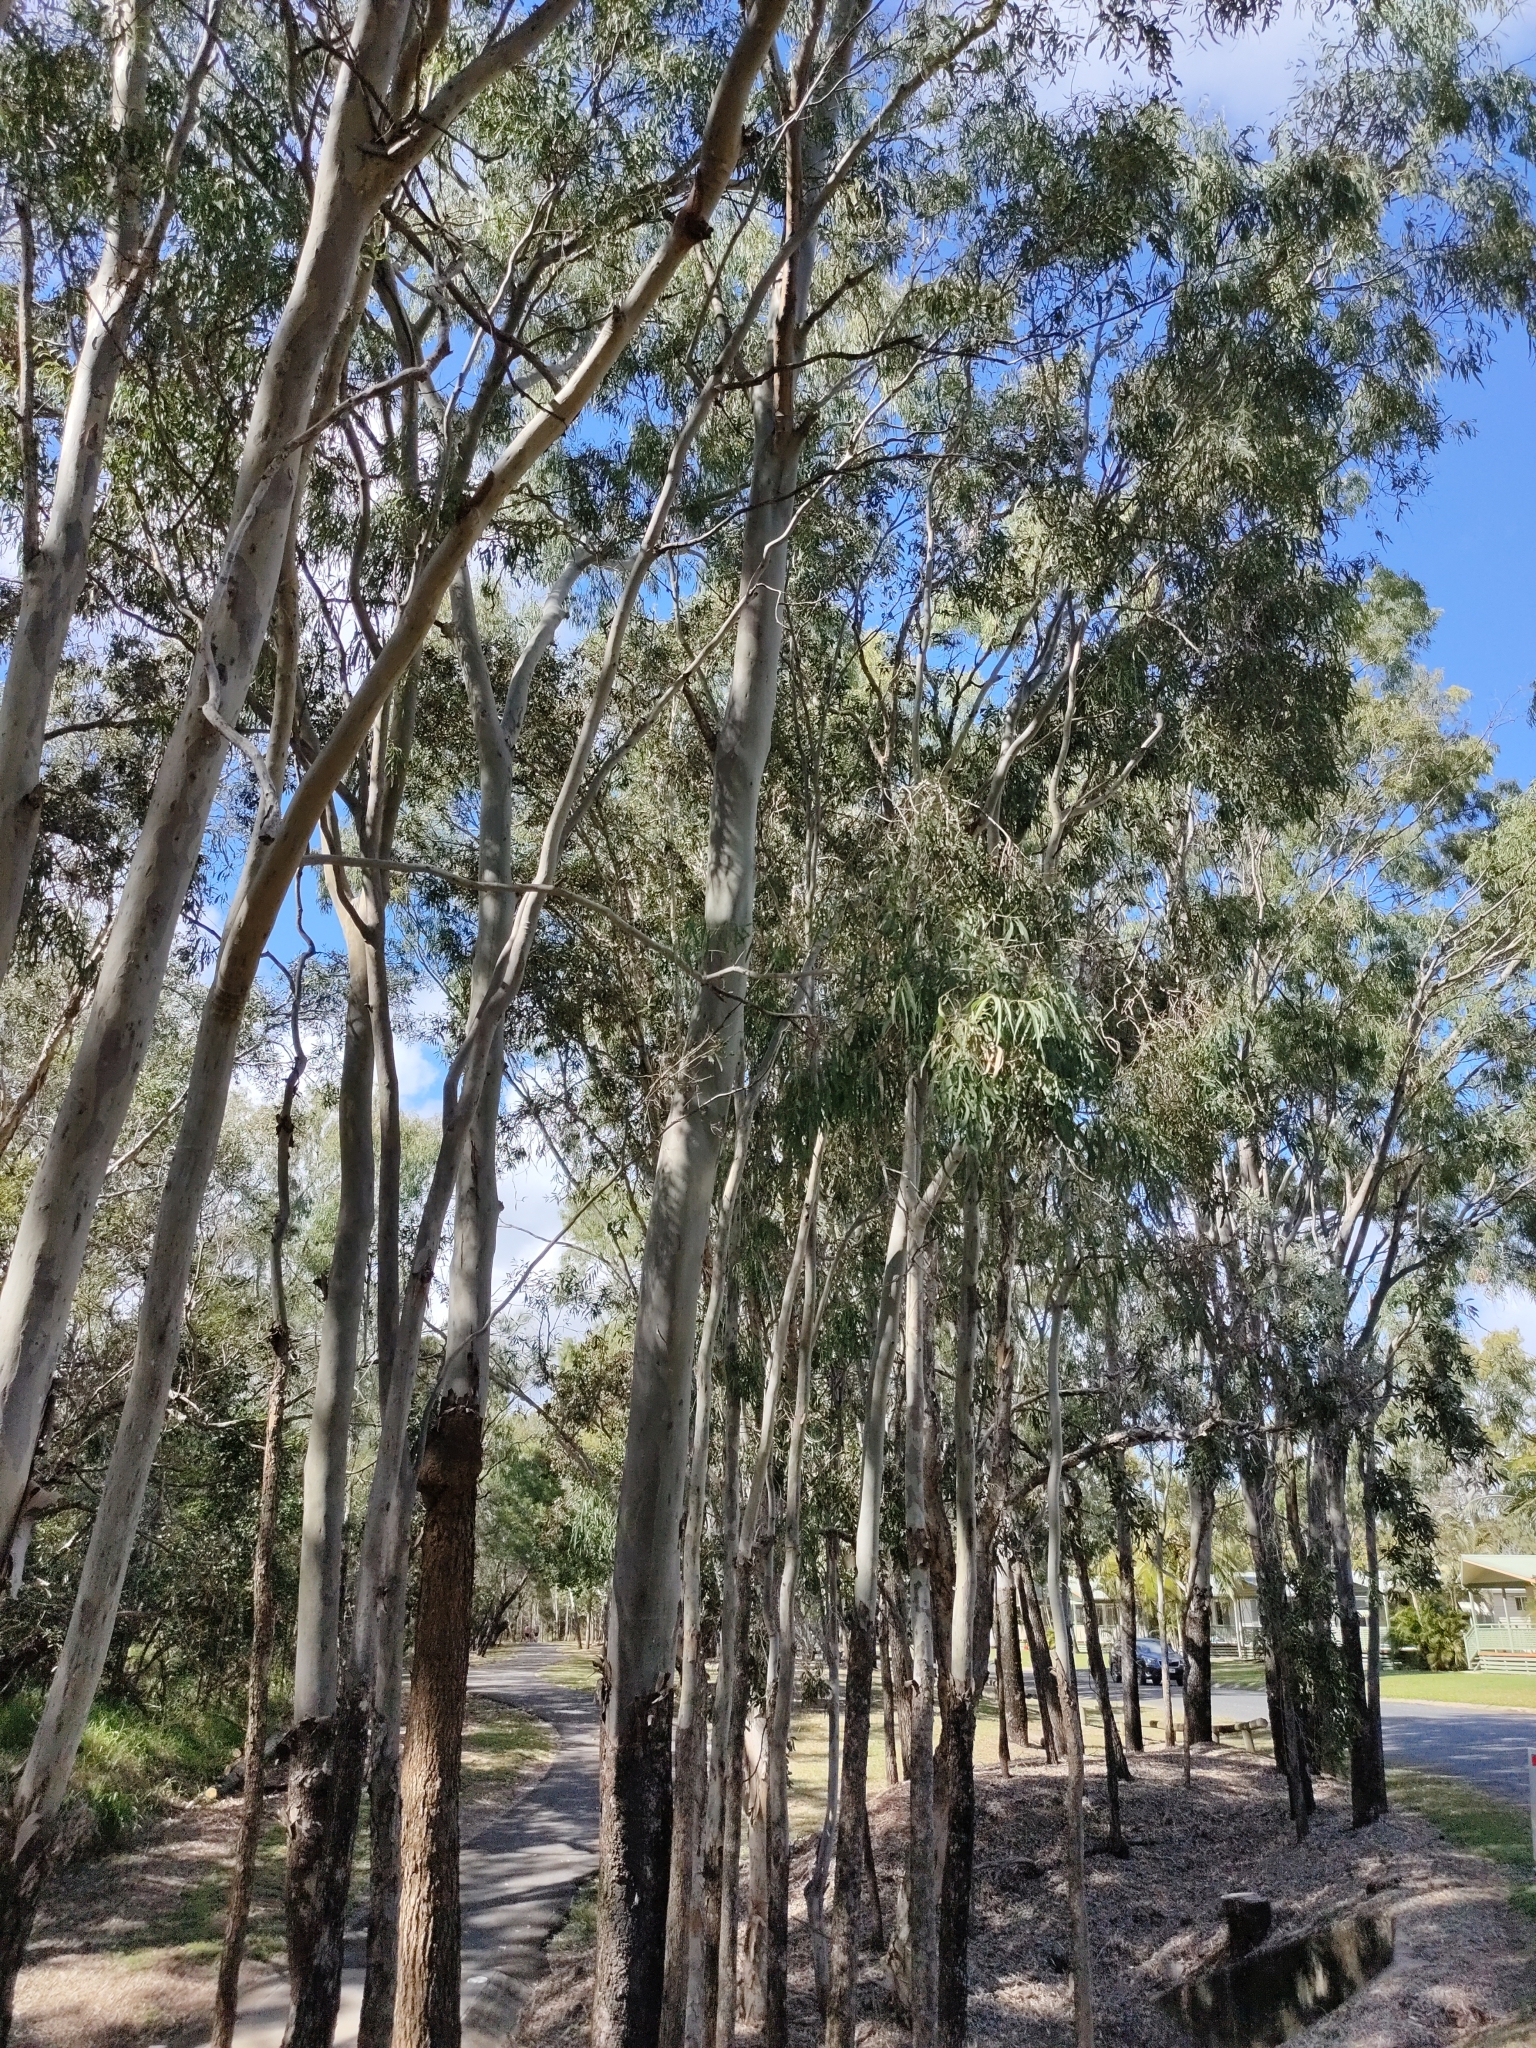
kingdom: Plantae
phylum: Tracheophyta
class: Magnoliopsida
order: Myrtales
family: Myrtaceae
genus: Corymbia
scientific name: Corymbia tessellaris
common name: Carbeen
